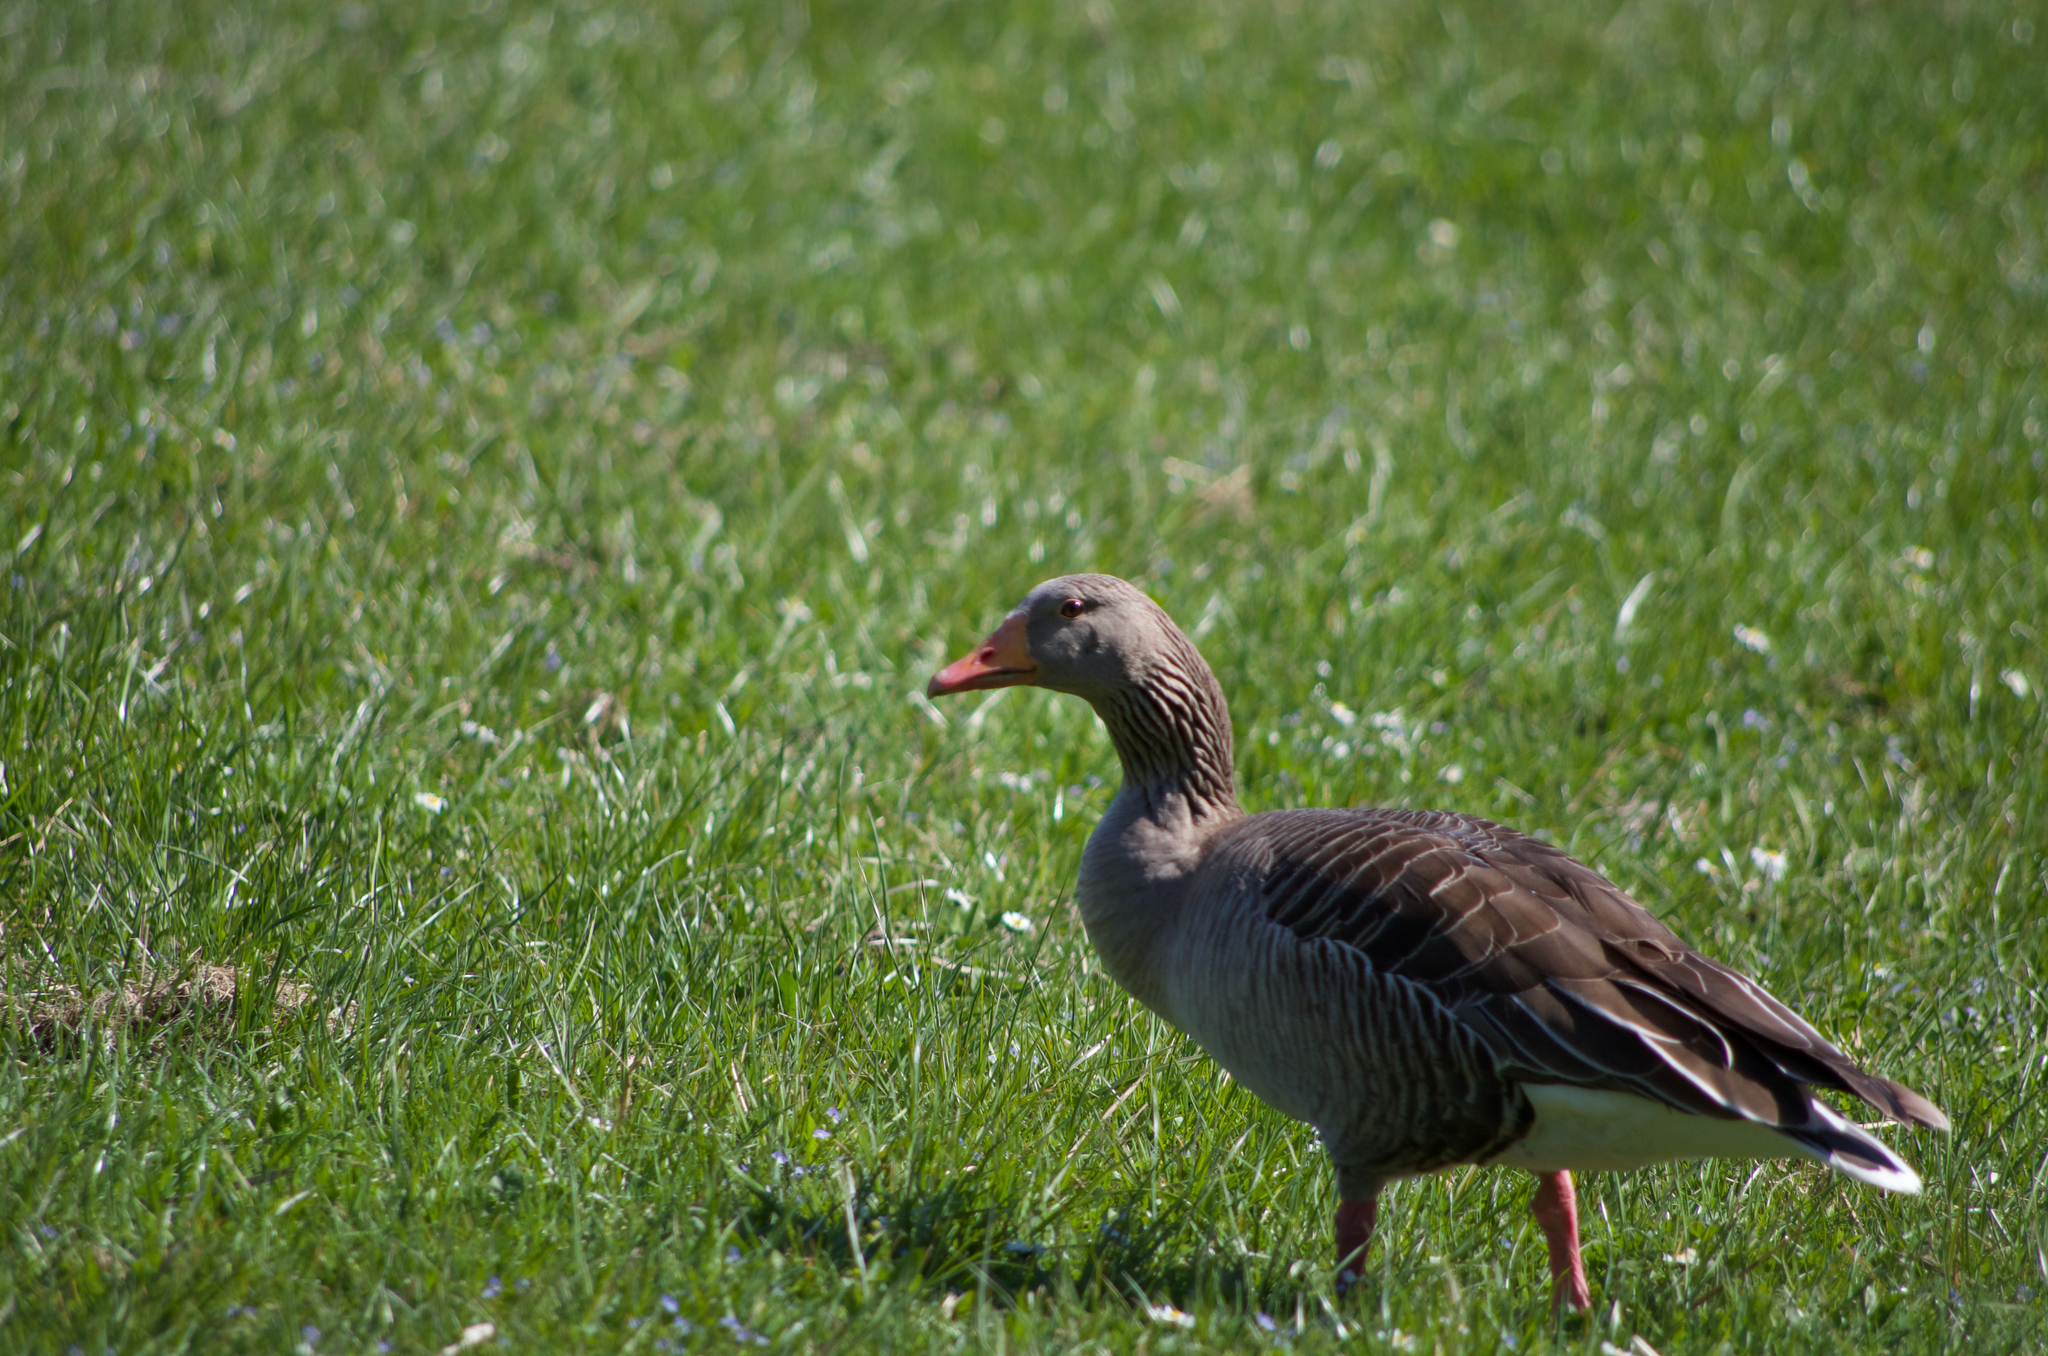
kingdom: Animalia
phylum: Chordata
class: Aves
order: Anseriformes
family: Anatidae
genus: Anser
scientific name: Anser anser
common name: Greylag goose
